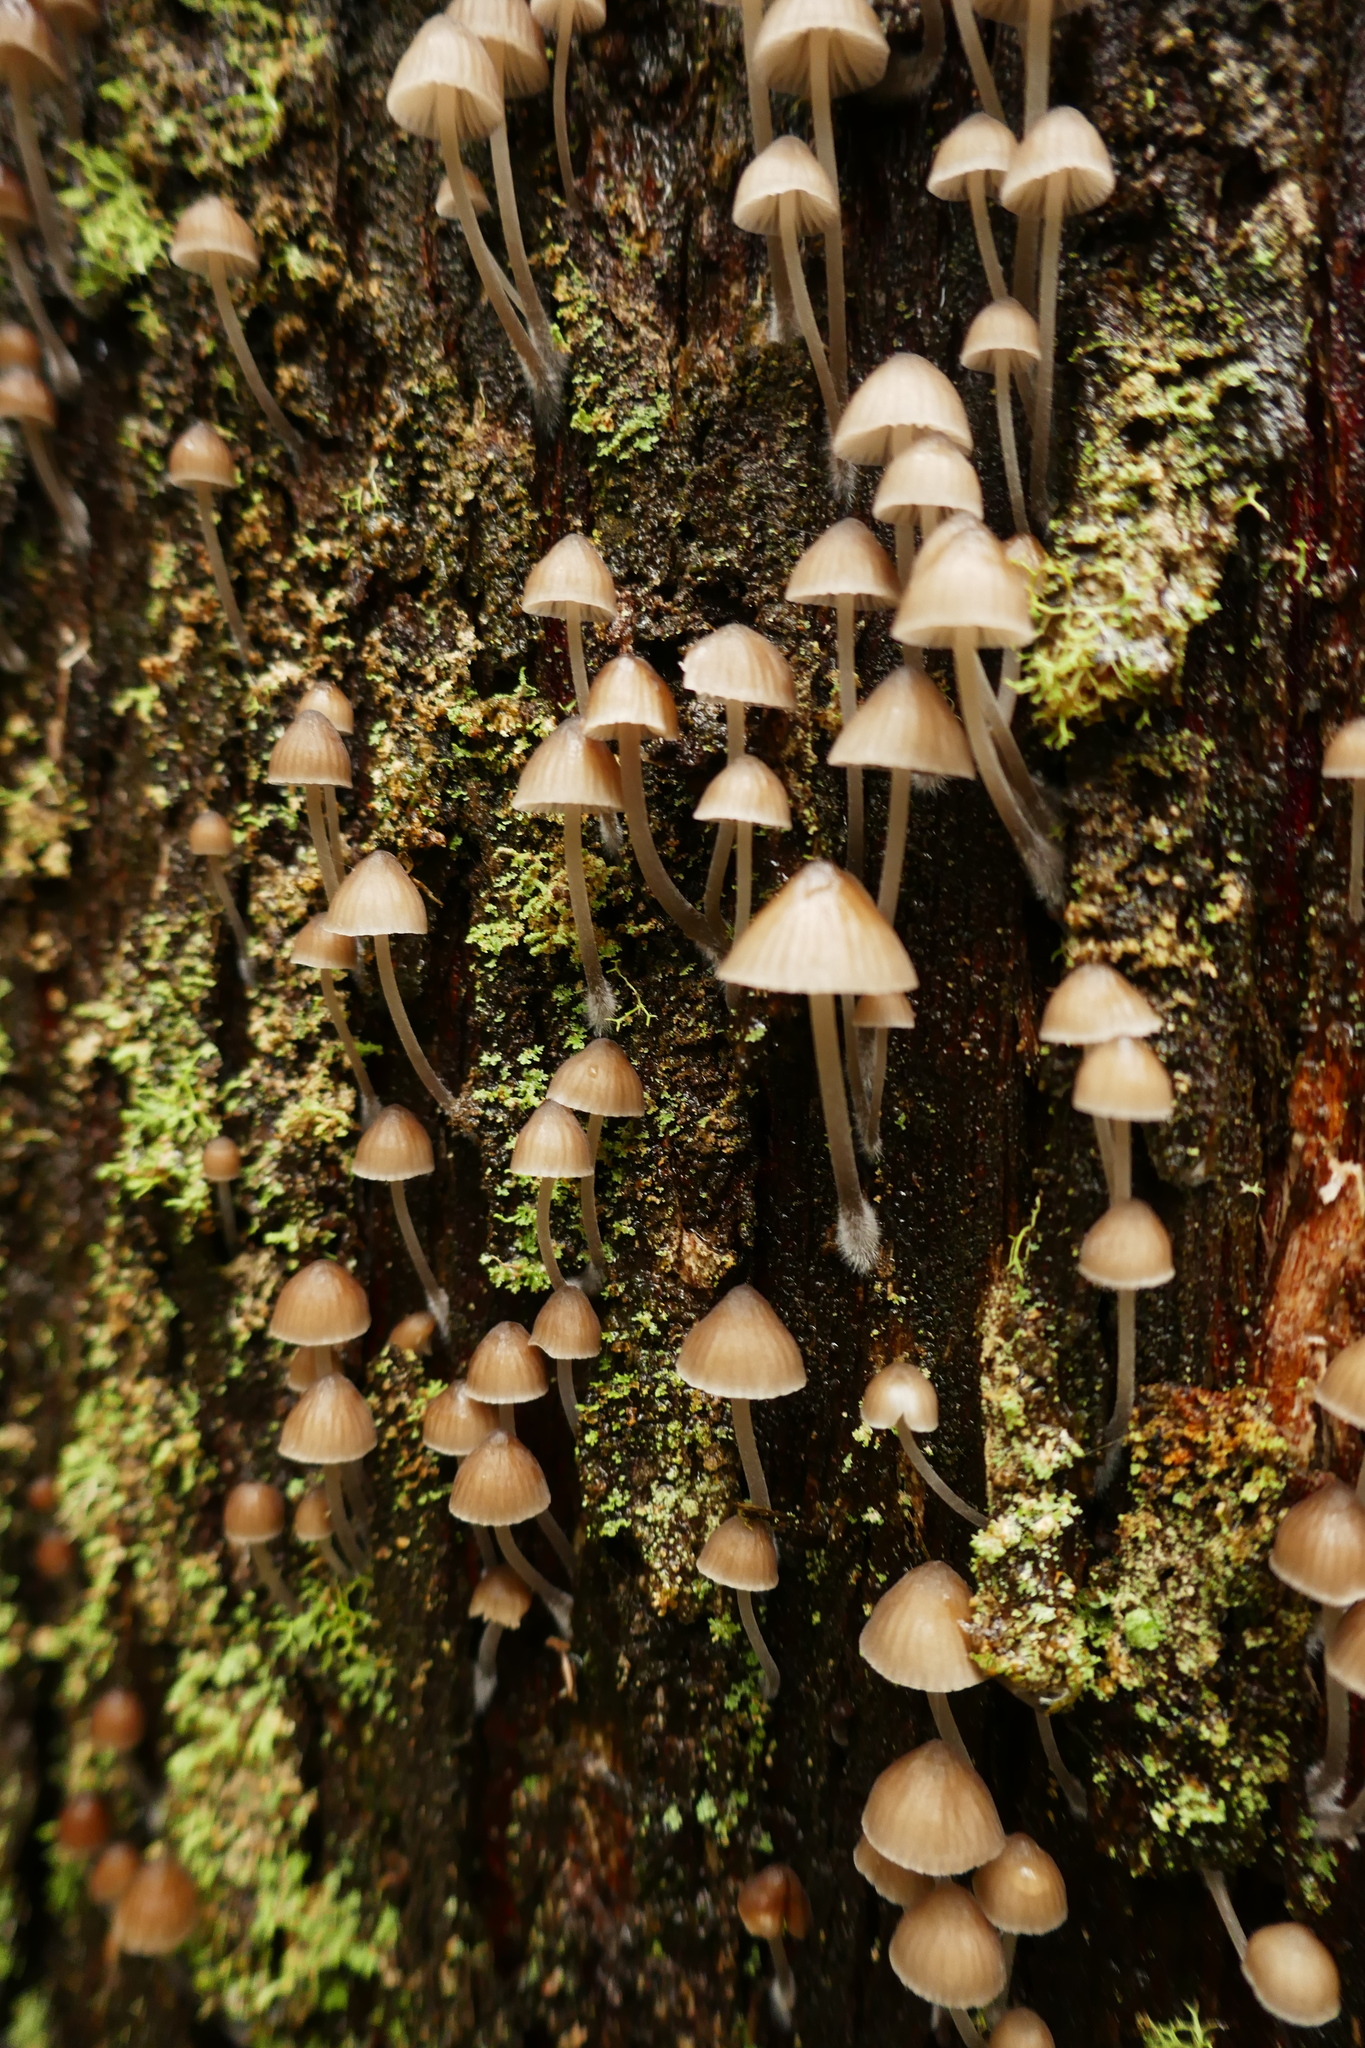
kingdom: Fungi
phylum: Basidiomycota
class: Agaricomycetes
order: Agaricales
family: Mycenaceae
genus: Mycena
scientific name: Mycena subgalericulata
